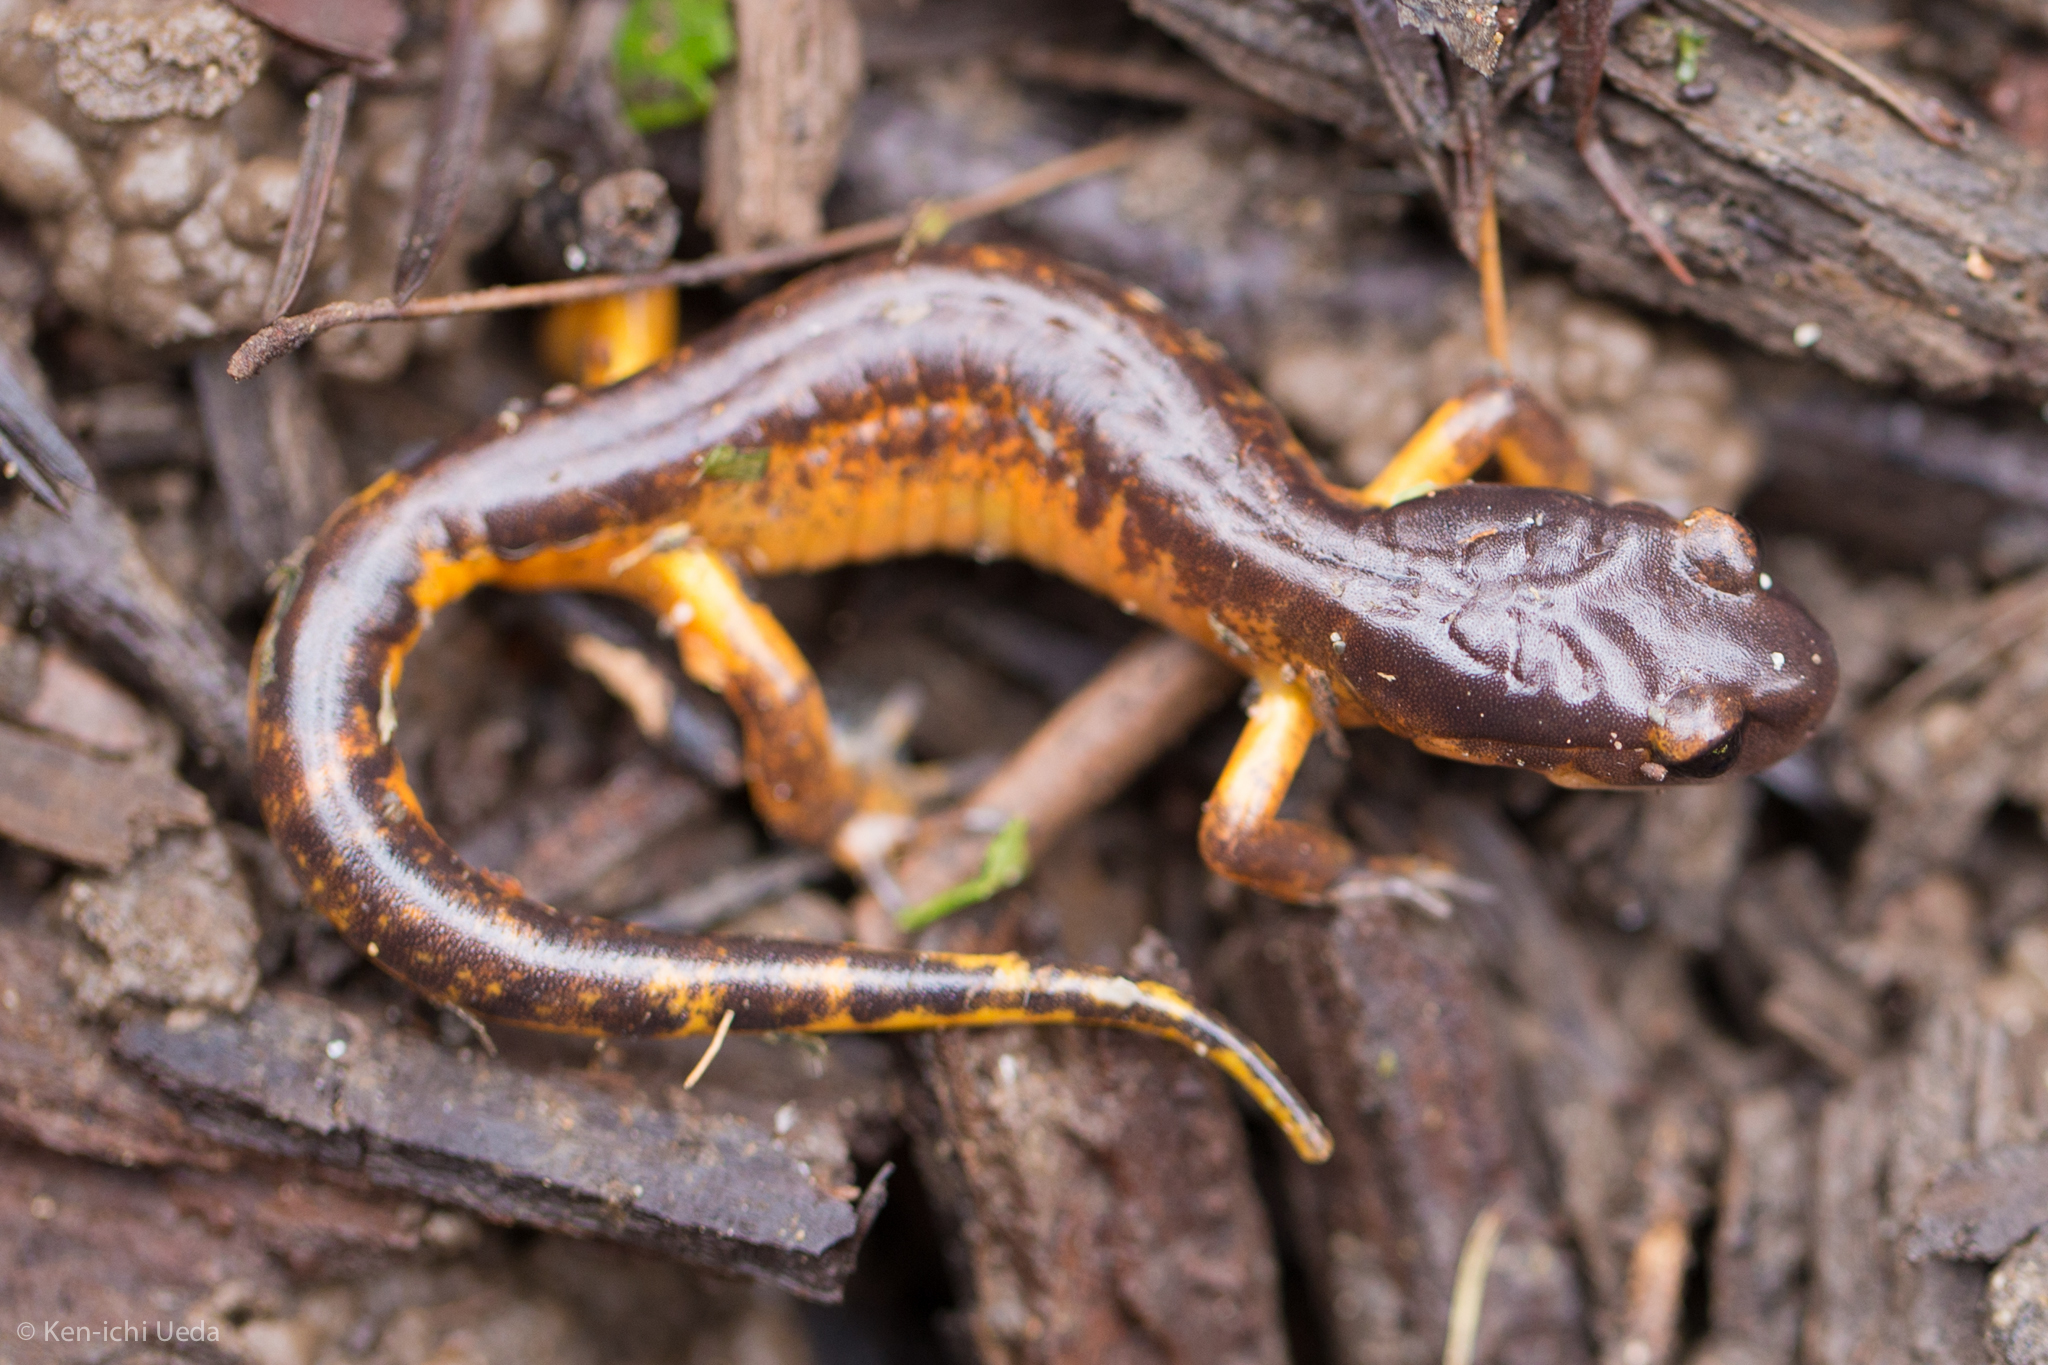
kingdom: Animalia
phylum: Chordata
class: Amphibia
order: Caudata
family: Plethodontidae
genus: Ensatina
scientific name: Ensatina eschscholtzii
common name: Ensatina
